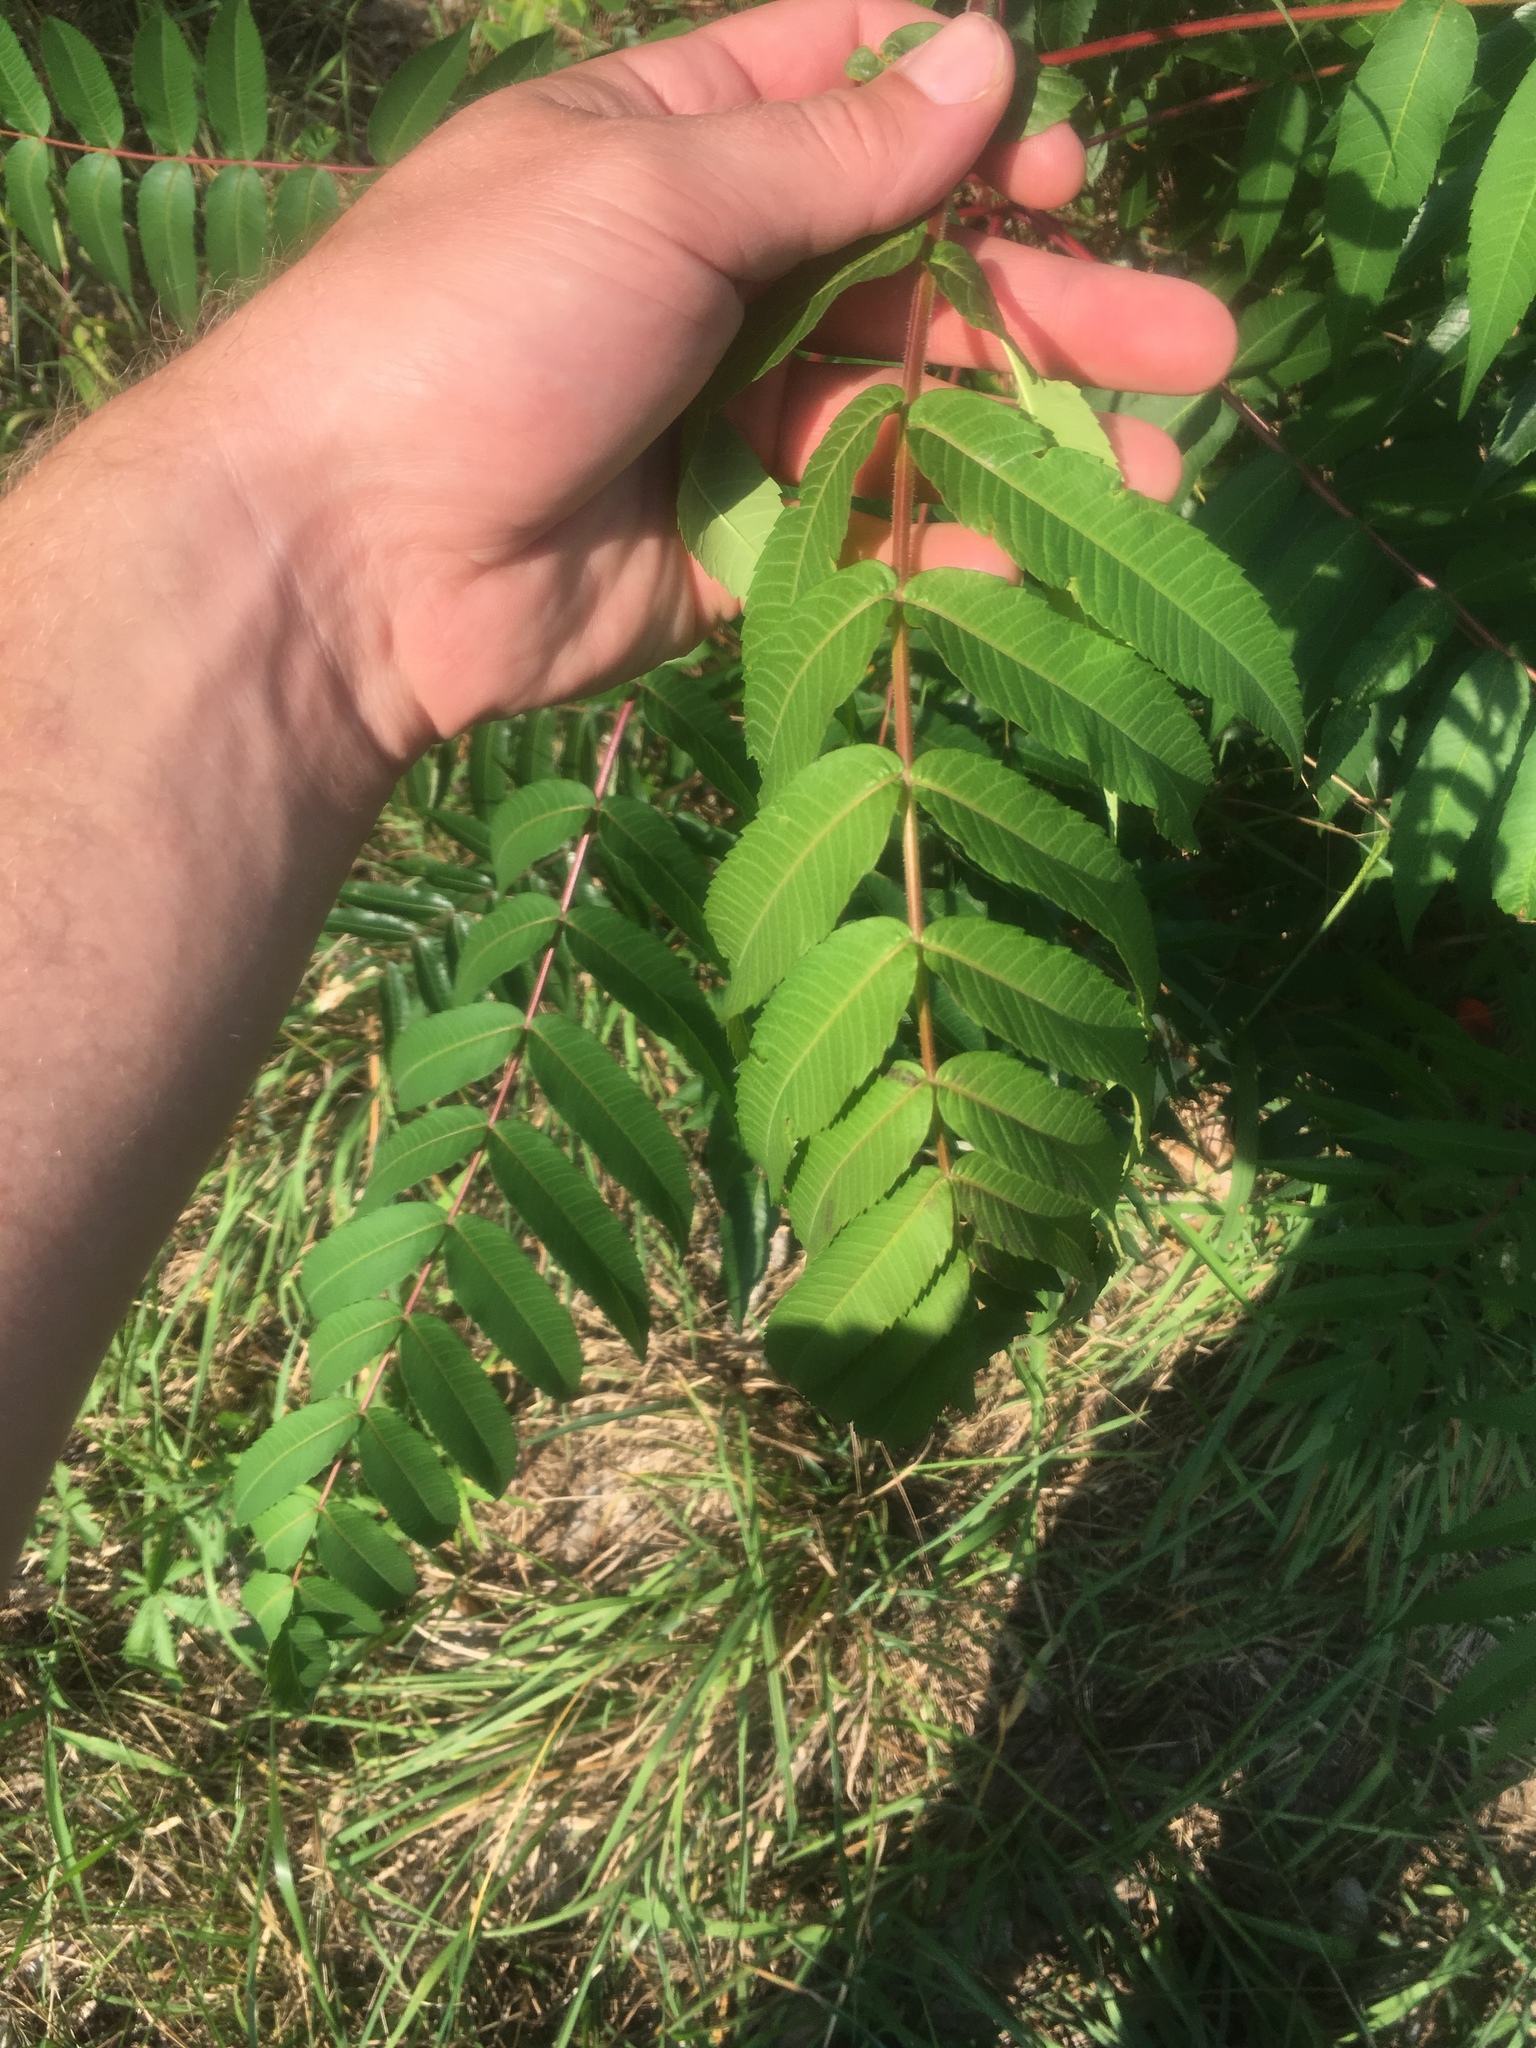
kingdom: Plantae
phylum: Tracheophyta
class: Magnoliopsida
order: Sapindales
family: Anacardiaceae
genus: Rhus
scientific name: Rhus typhina
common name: Staghorn sumac
